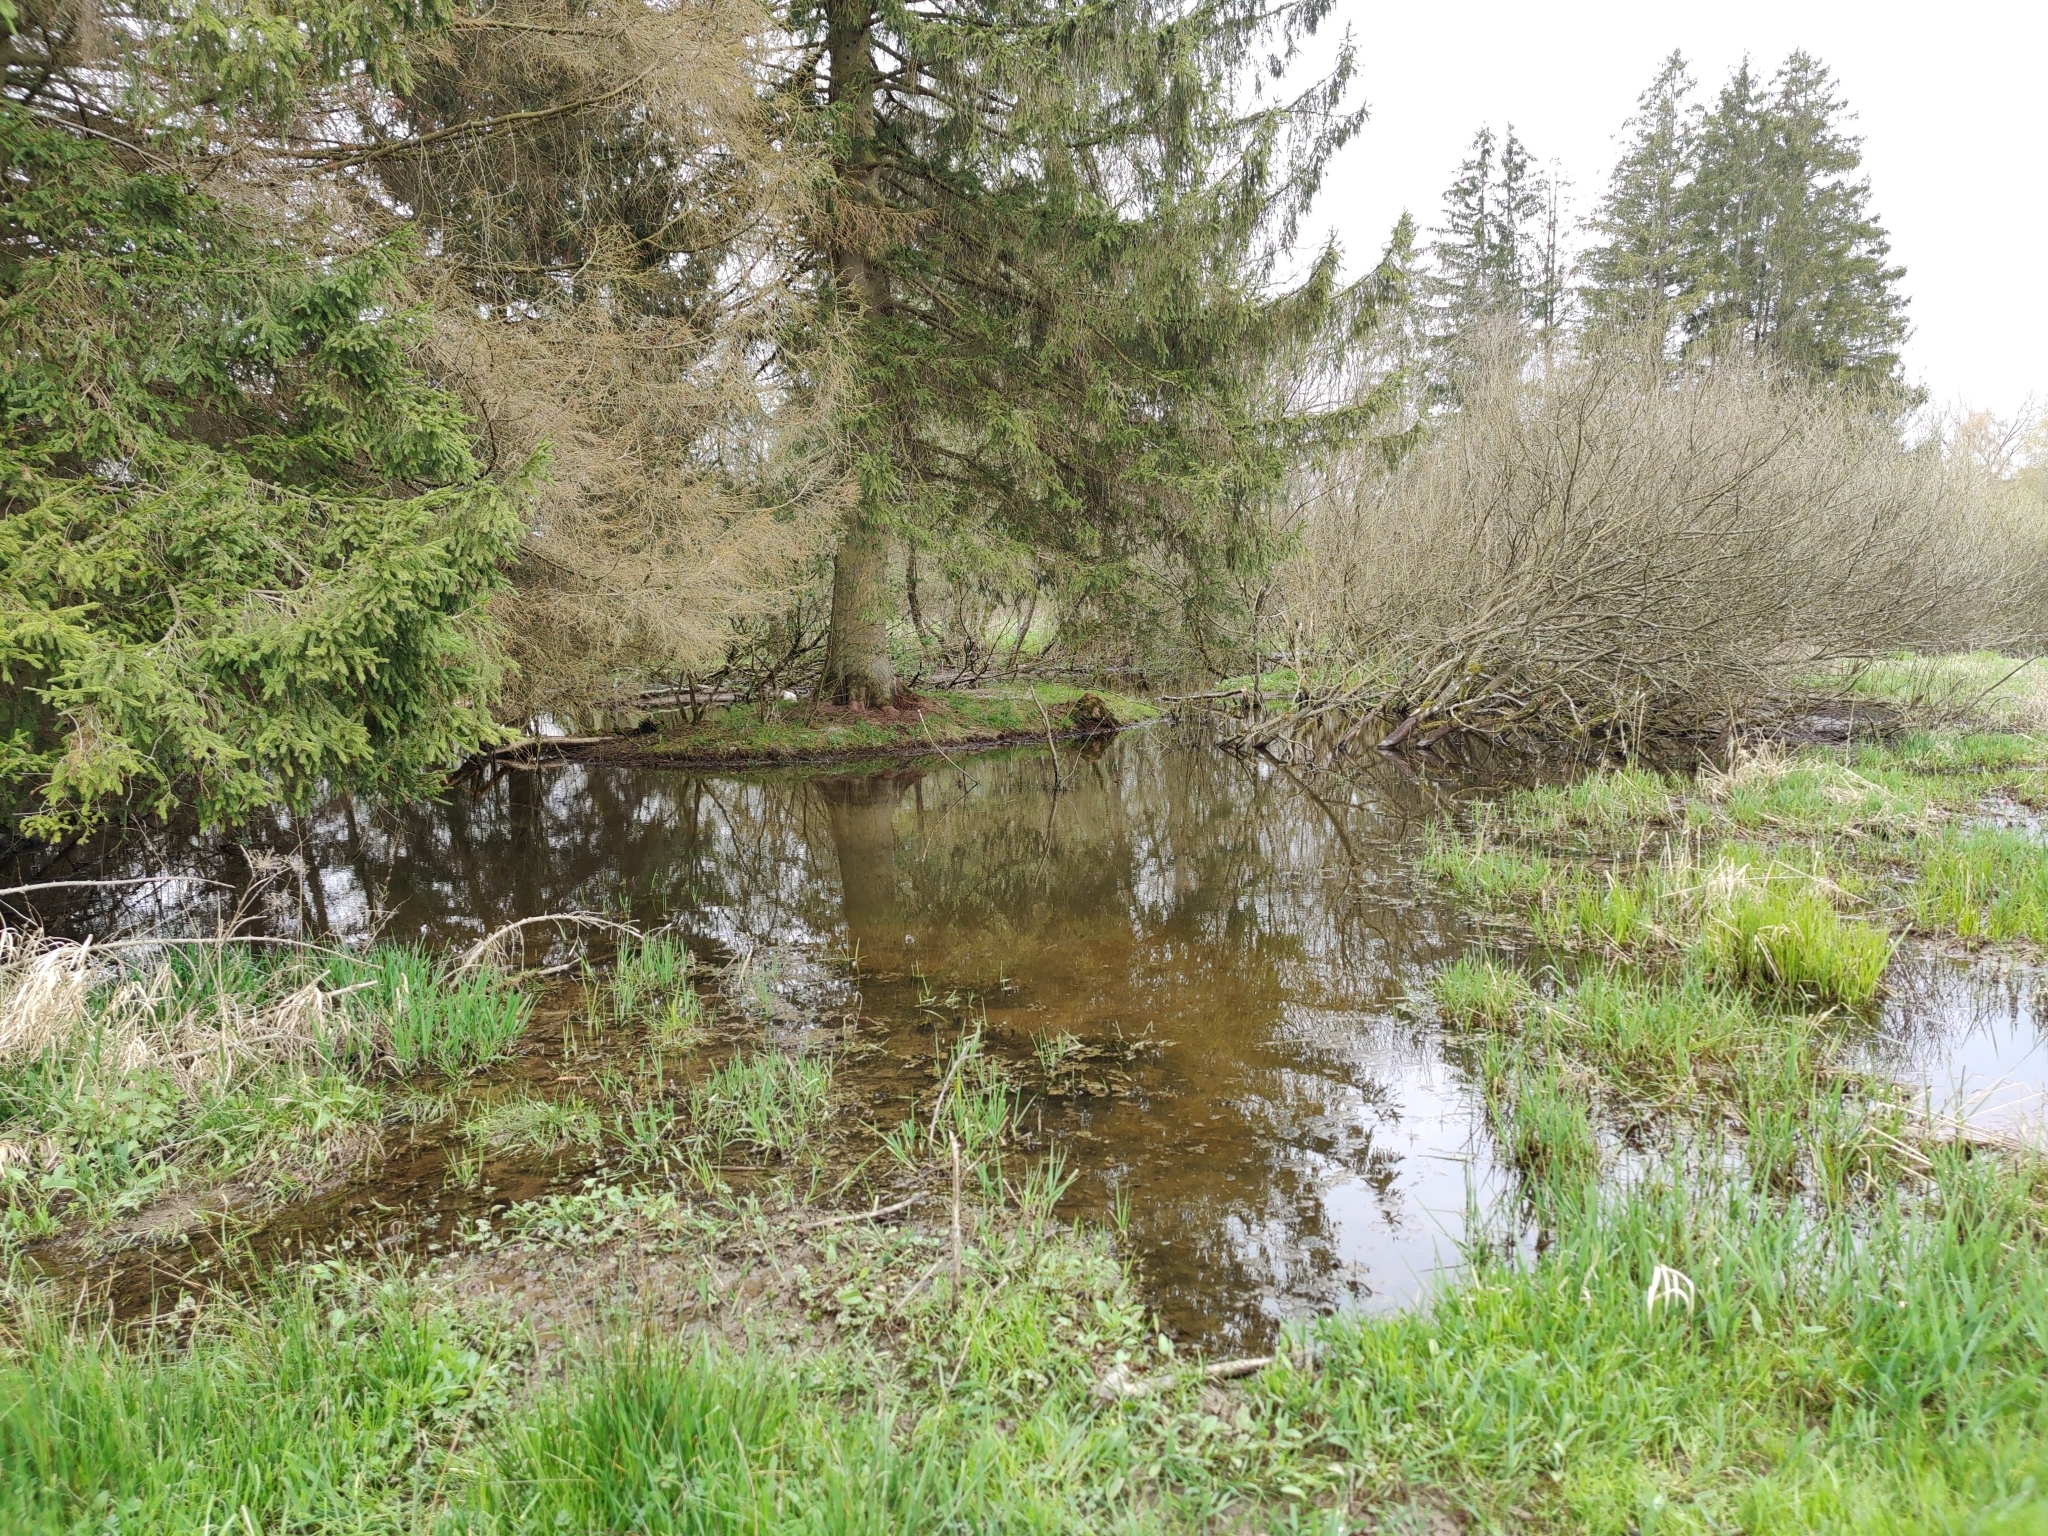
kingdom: Animalia
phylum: Chordata
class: Mammalia
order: Rodentia
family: Castoridae
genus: Castor
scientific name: Castor fiber
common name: Eurasian beaver
